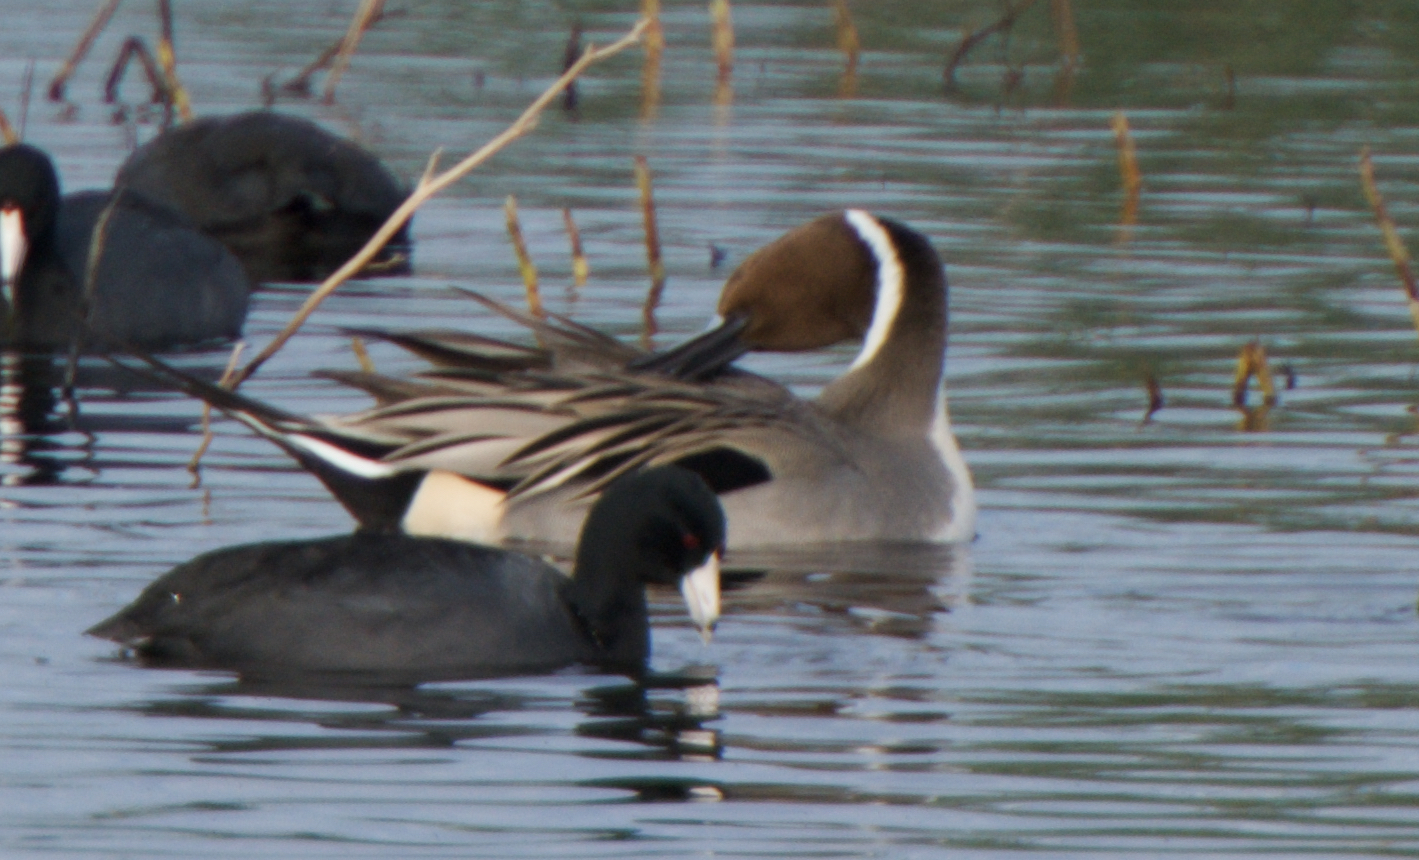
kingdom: Animalia
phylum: Chordata
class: Aves
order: Anseriformes
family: Anatidae
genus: Anas
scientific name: Anas acuta
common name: Northern pintail
